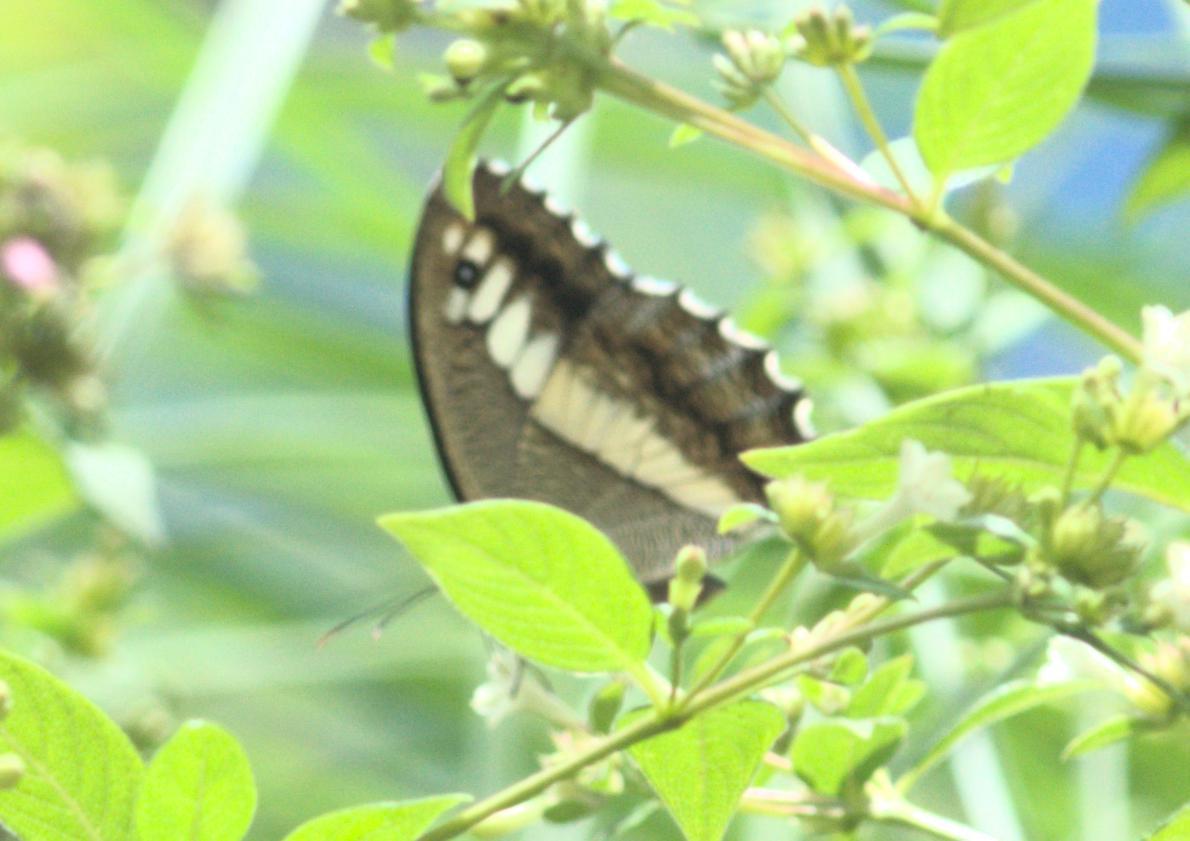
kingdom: Animalia
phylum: Arthropoda
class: Insecta
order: Lepidoptera
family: Nymphalidae
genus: Satyrus
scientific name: Satyrus
